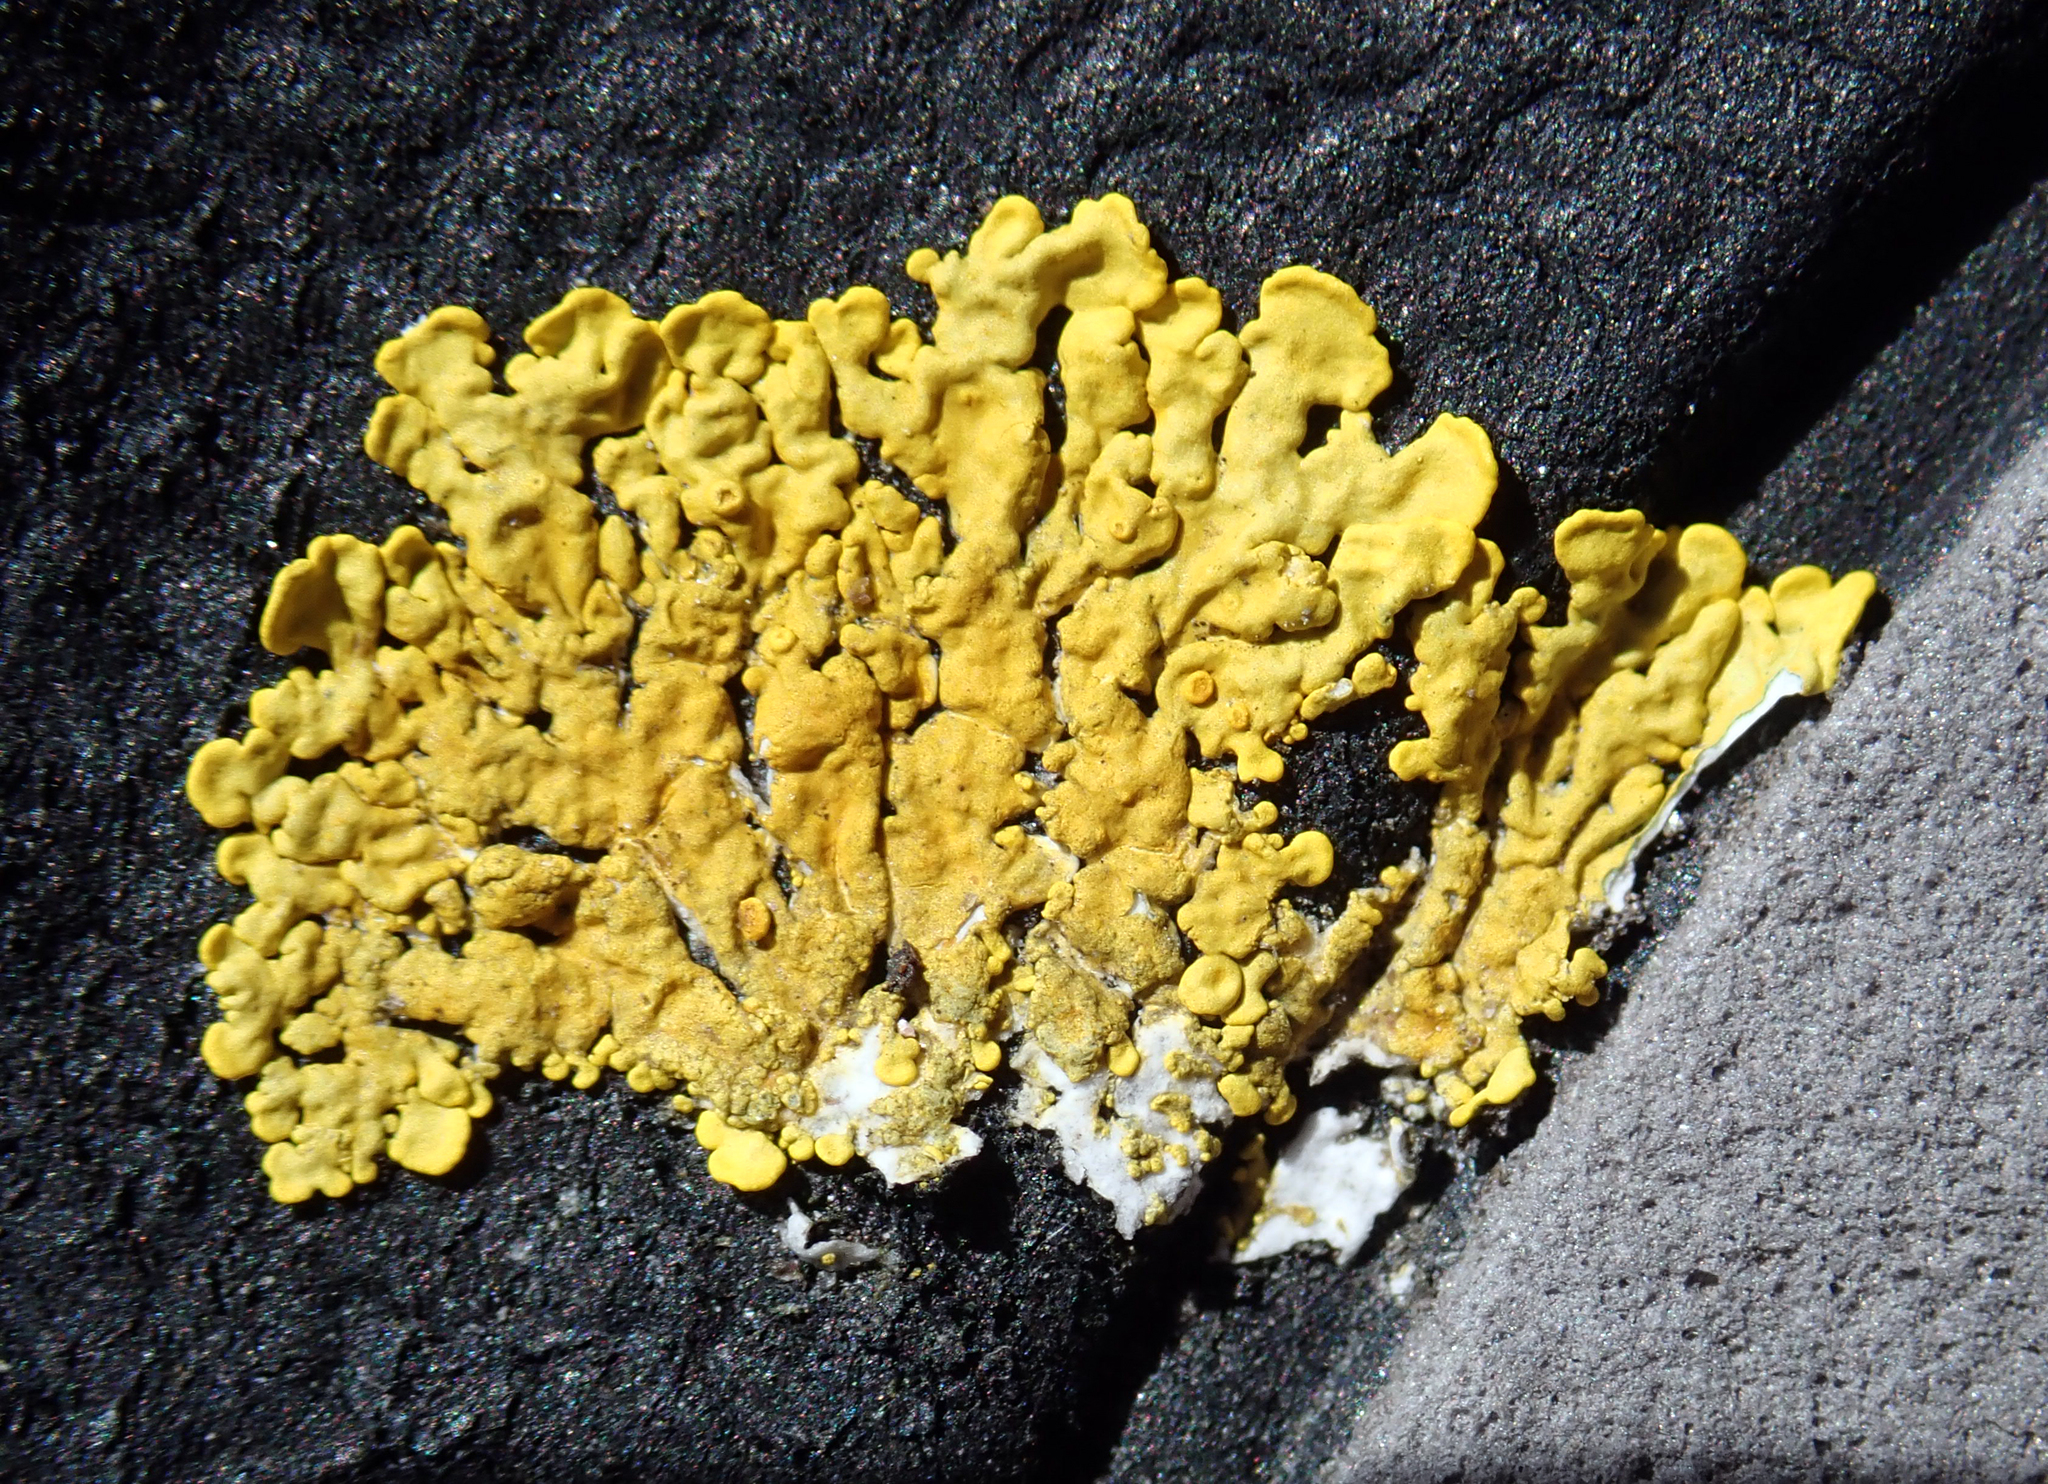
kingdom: Fungi
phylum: Ascomycota
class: Lecanoromycetes
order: Teloschistales
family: Teloschistaceae
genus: Dufourea
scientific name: Dufourea ligulata
